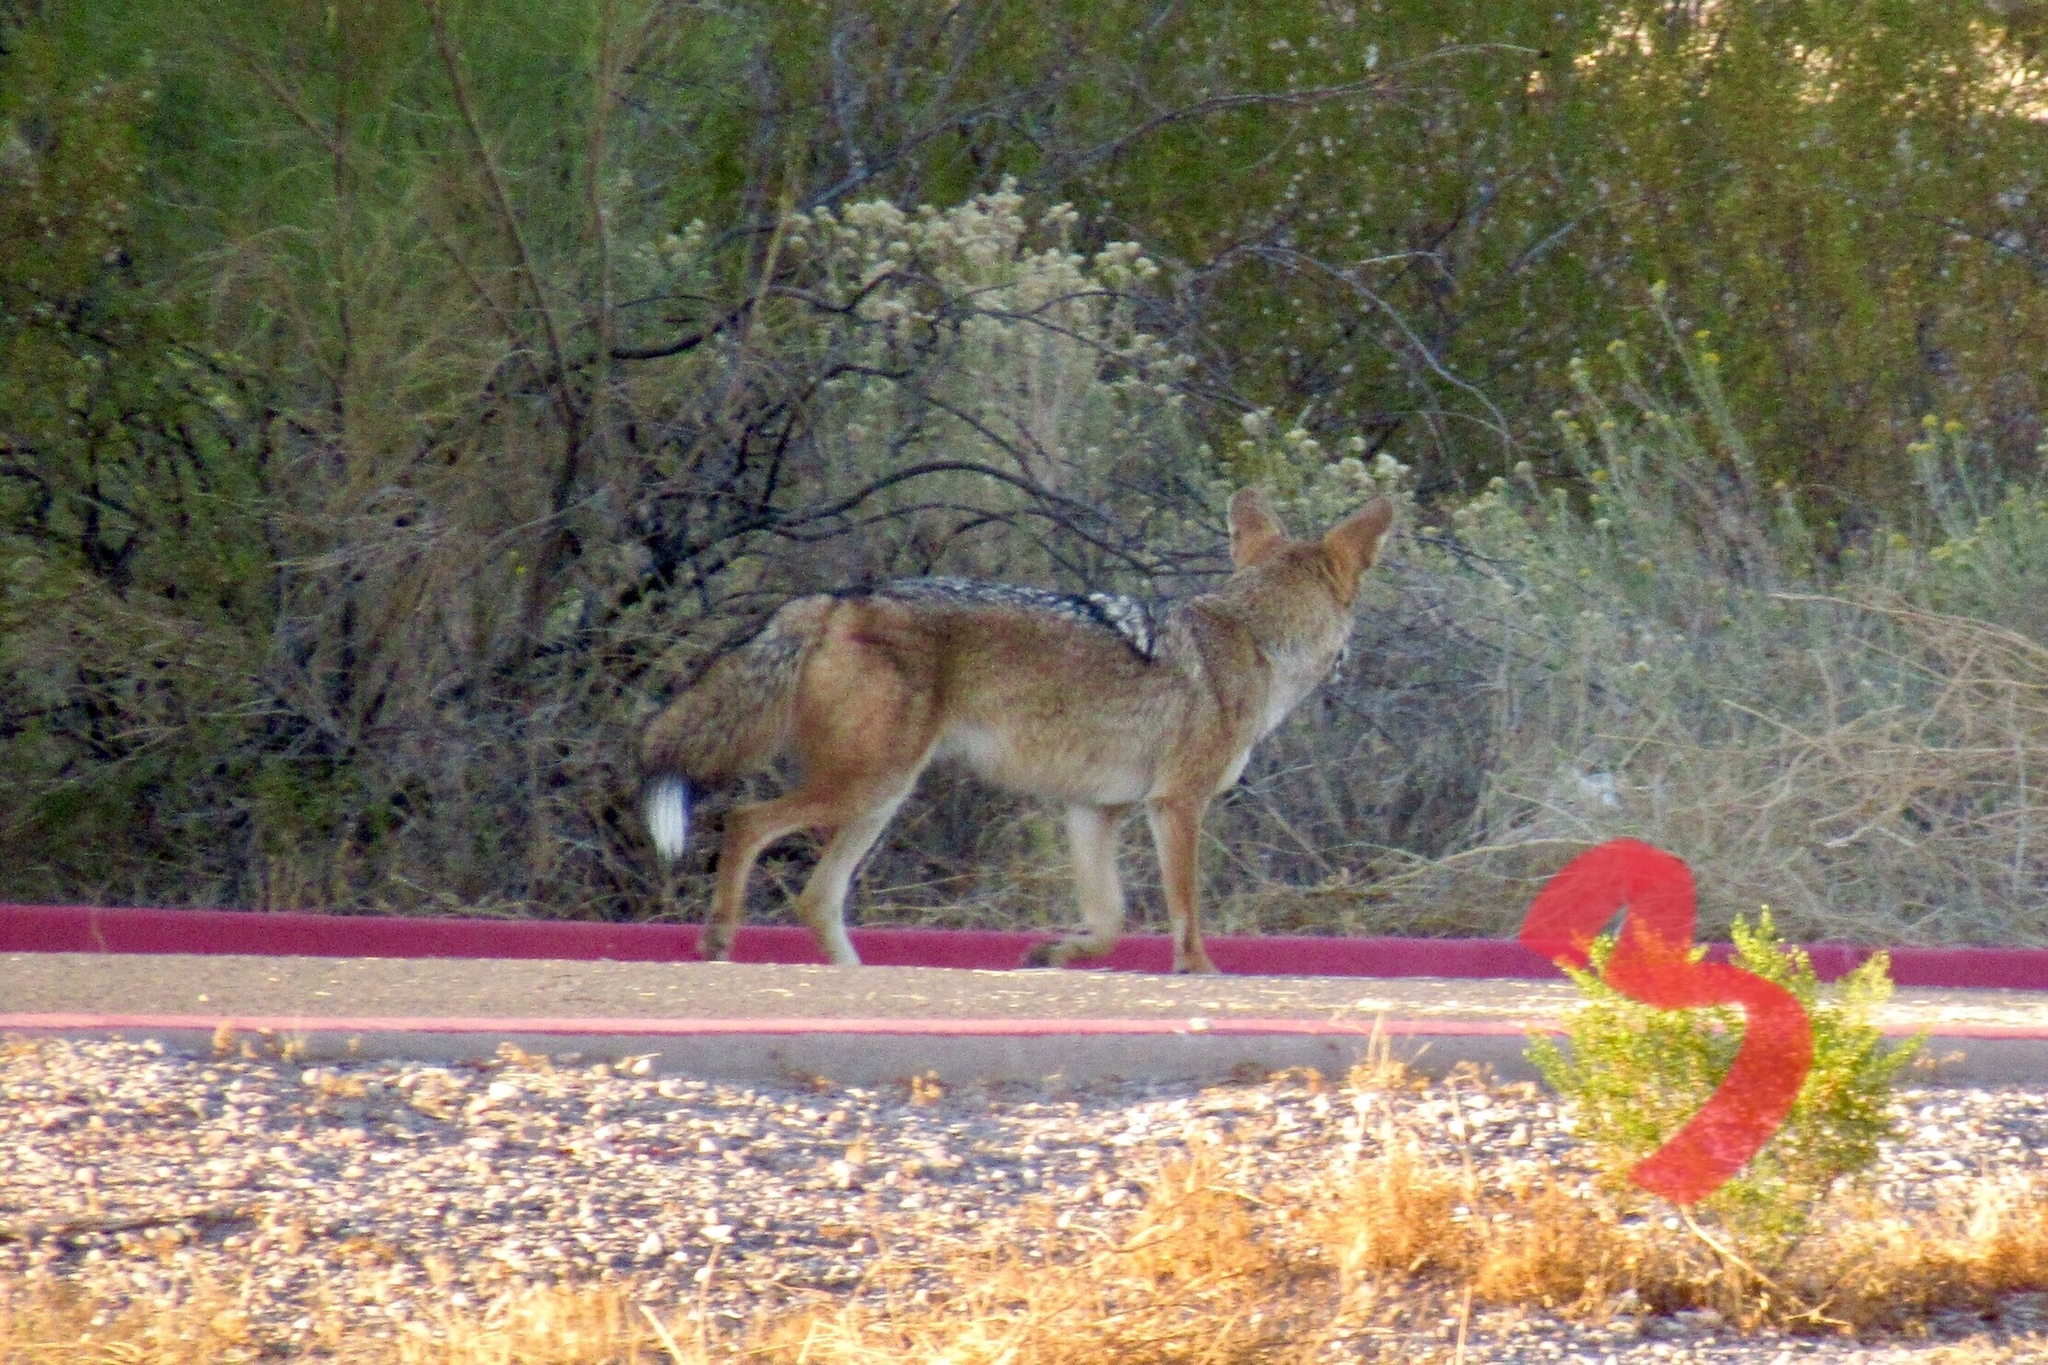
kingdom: Animalia
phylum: Chordata
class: Mammalia
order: Carnivora
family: Canidae
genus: Canis
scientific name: Canis latrans
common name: Coyote
